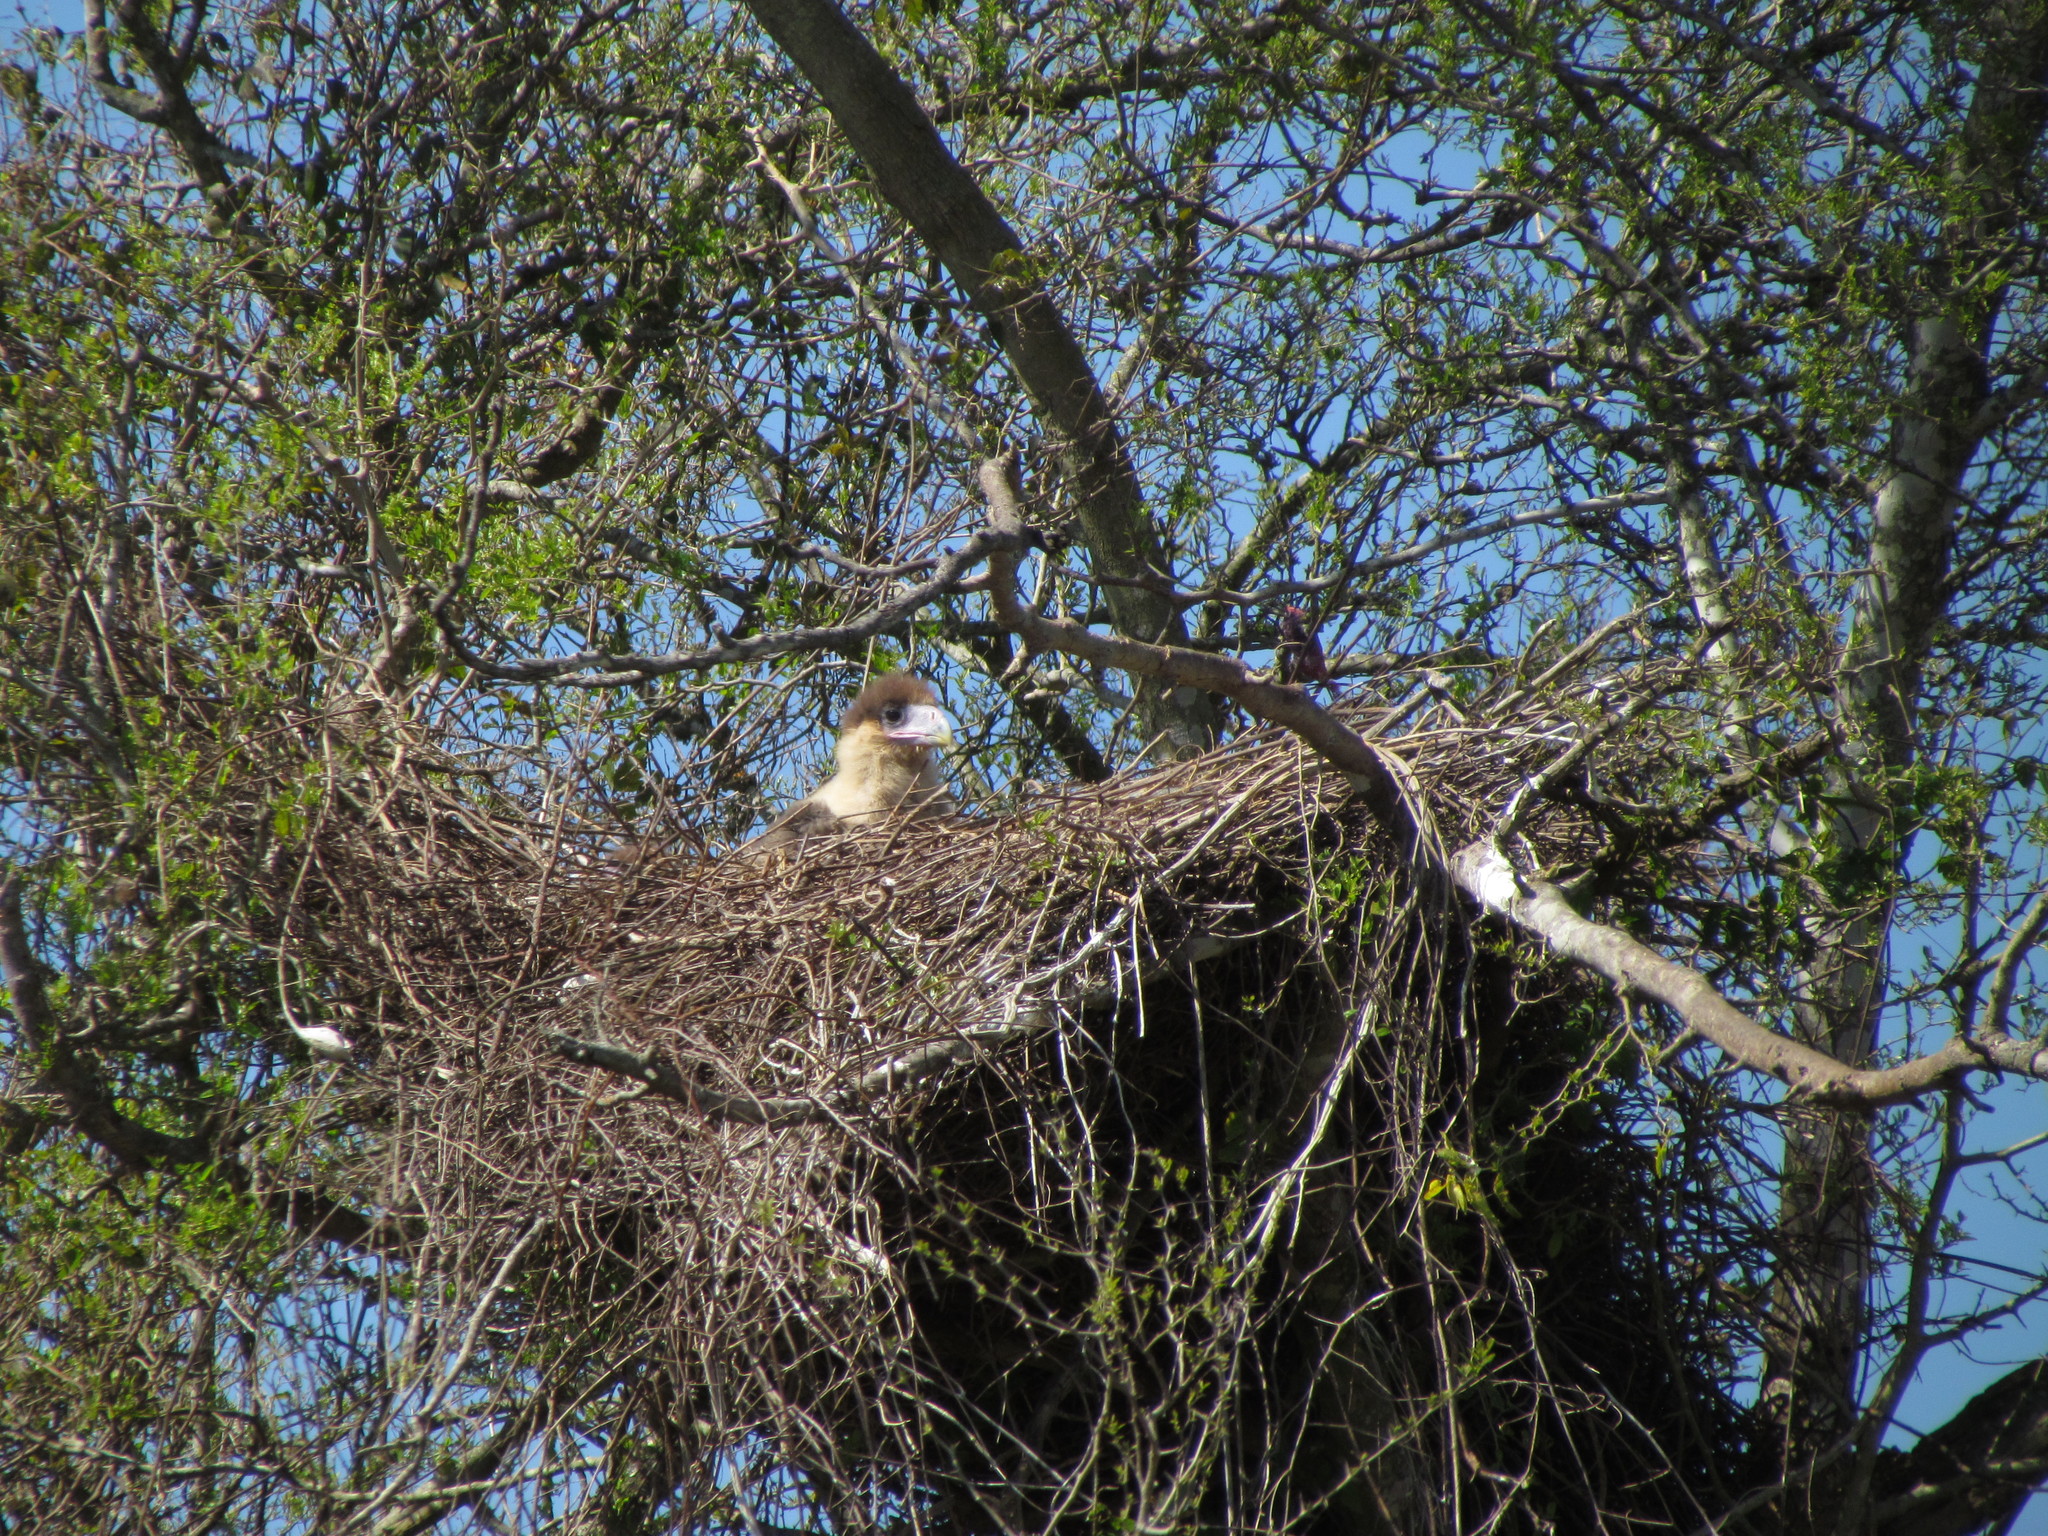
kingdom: Animalia
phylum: Chordata
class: Aves
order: Falconiformes
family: Falconidae
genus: Caracara
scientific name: Caracara plancus
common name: Southern caracara
